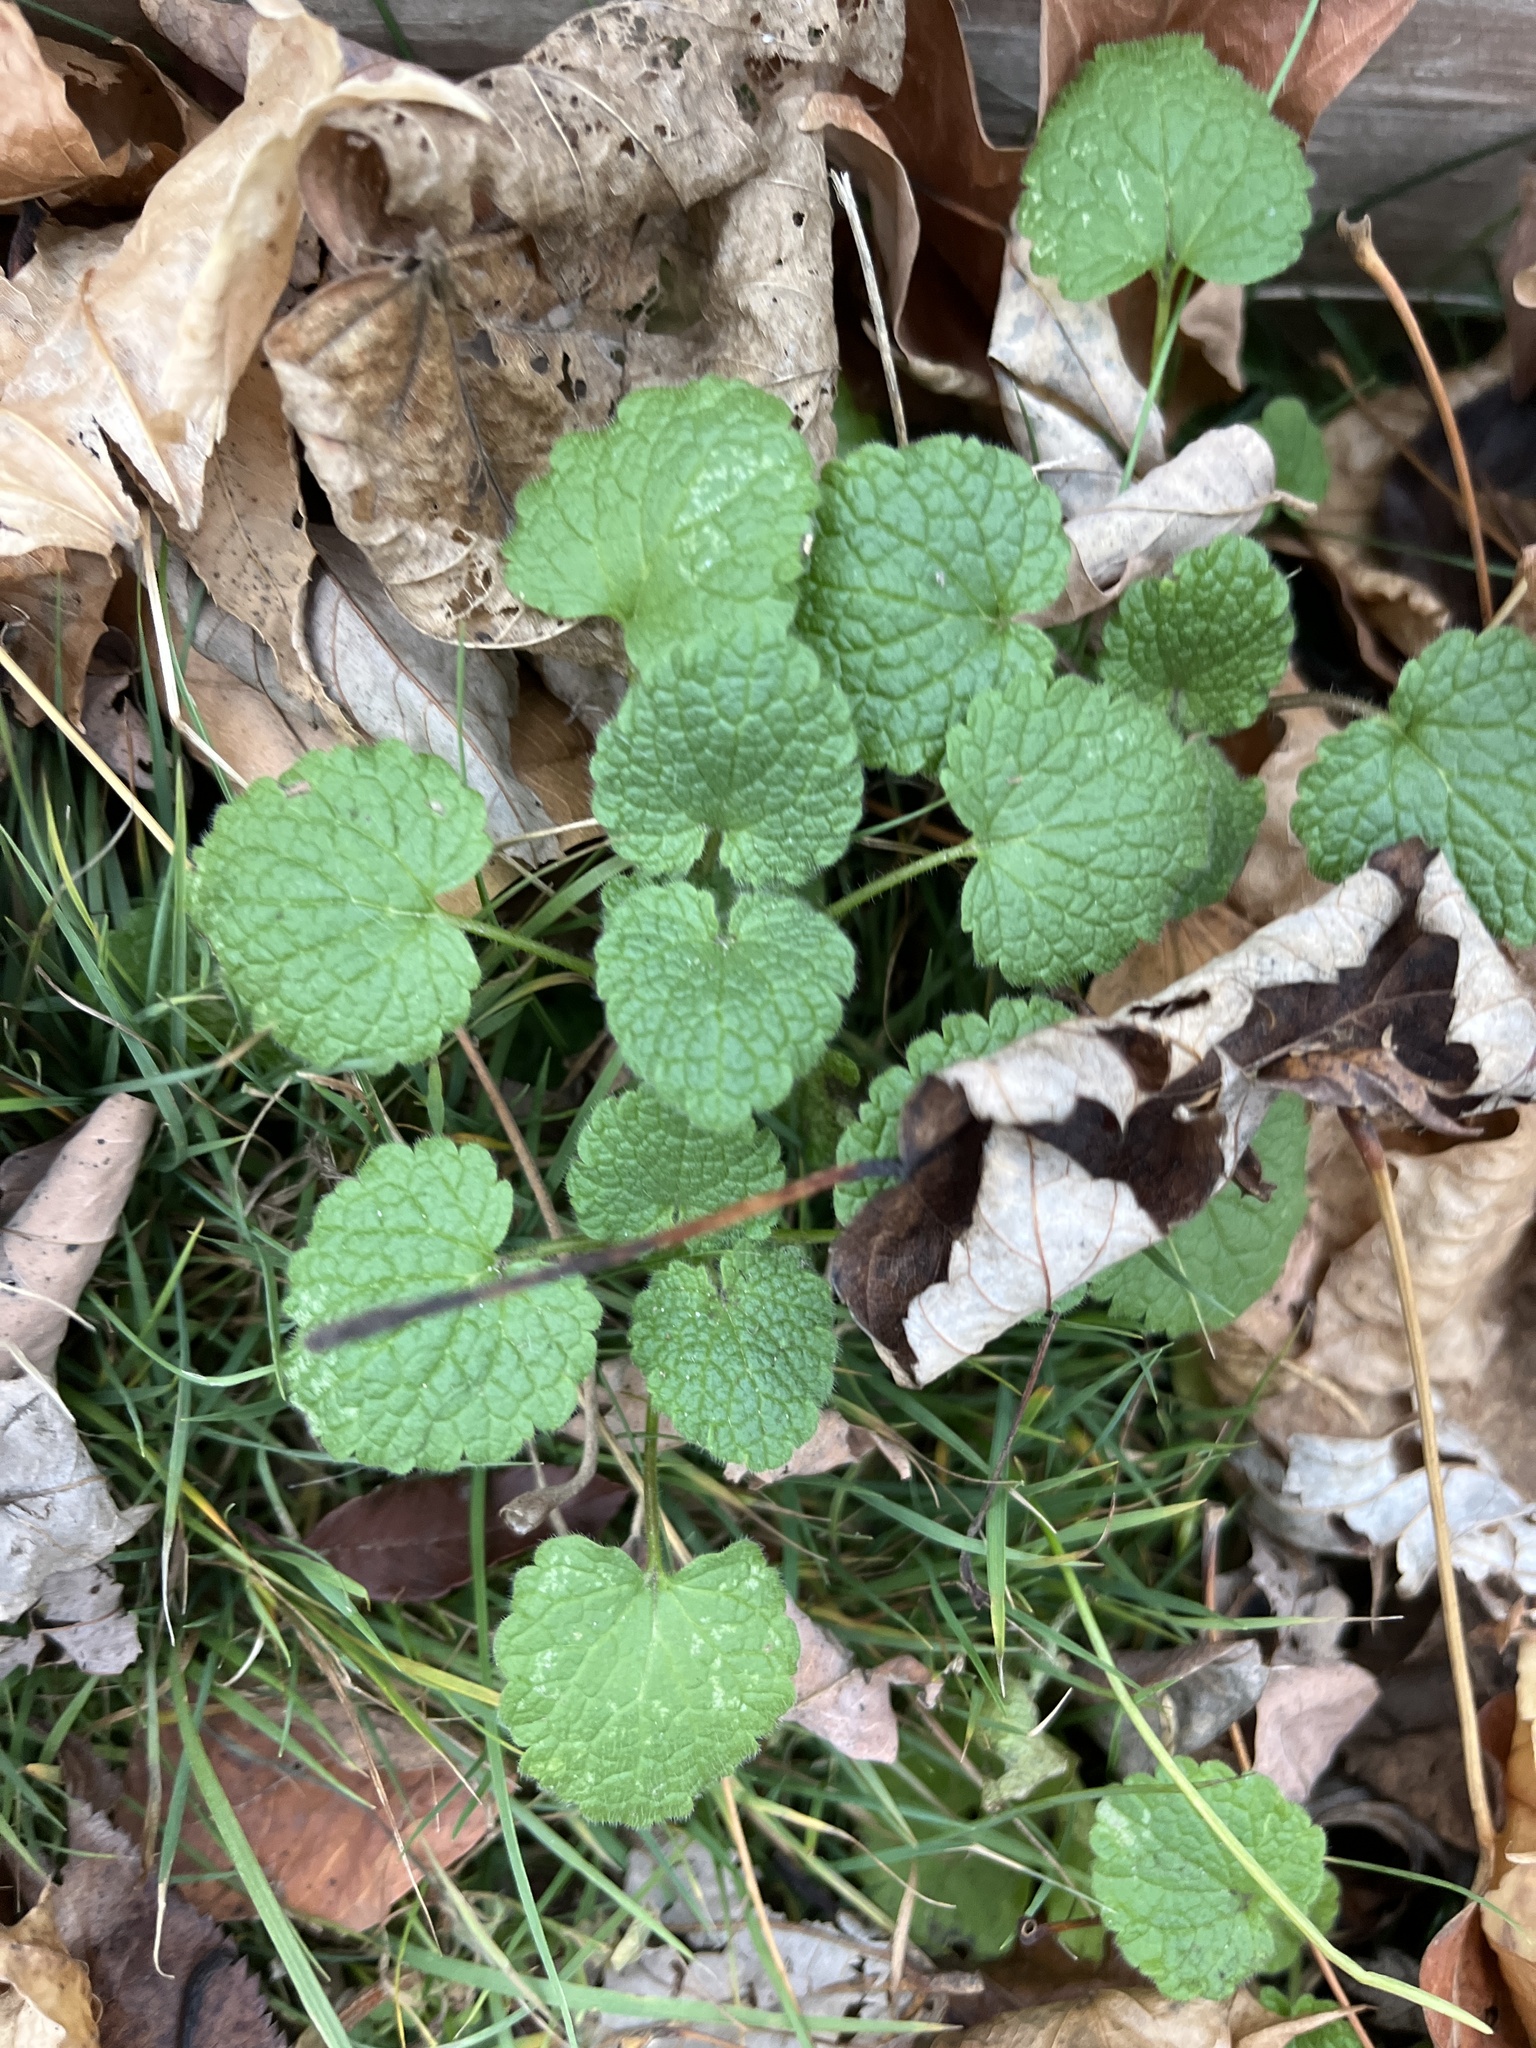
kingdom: Plantae
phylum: Tracheophyta
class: Magnoliopsida
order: Lamiales
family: Lamiaceae
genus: Lamium
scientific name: Lamium purpureum
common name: Red dead-nettle
